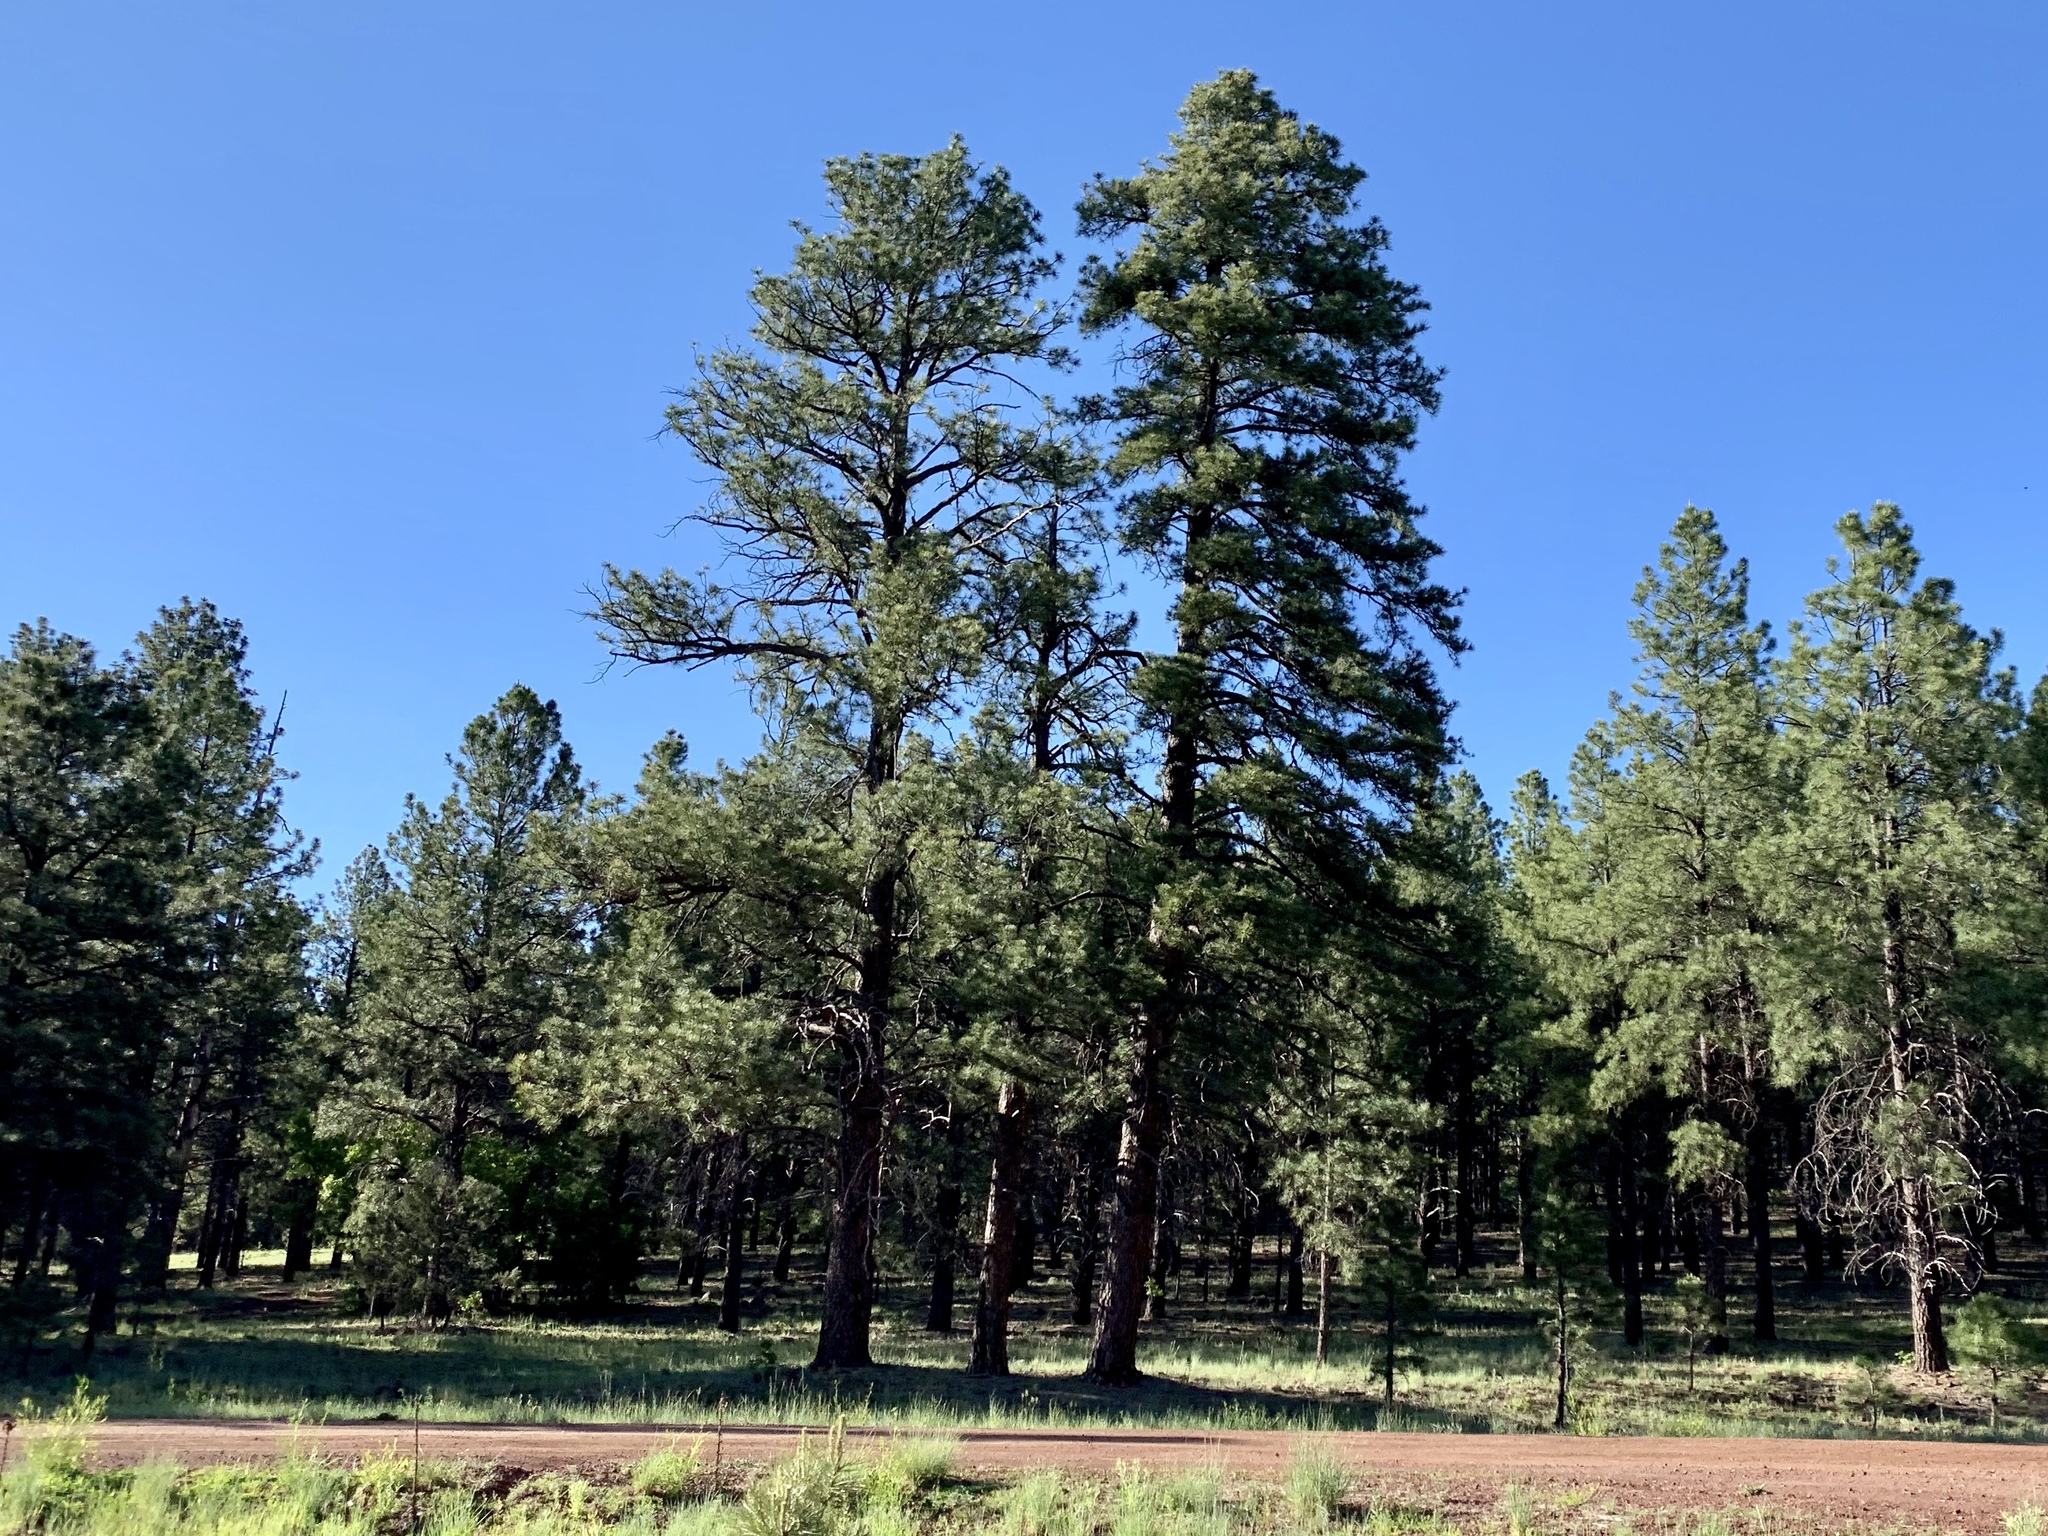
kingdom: Plantae
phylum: Tracheophyta
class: Pinopsida
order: Pinales
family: Pinaceae
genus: Pinus
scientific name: Pinus ponderosa
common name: Western yellow-pine
